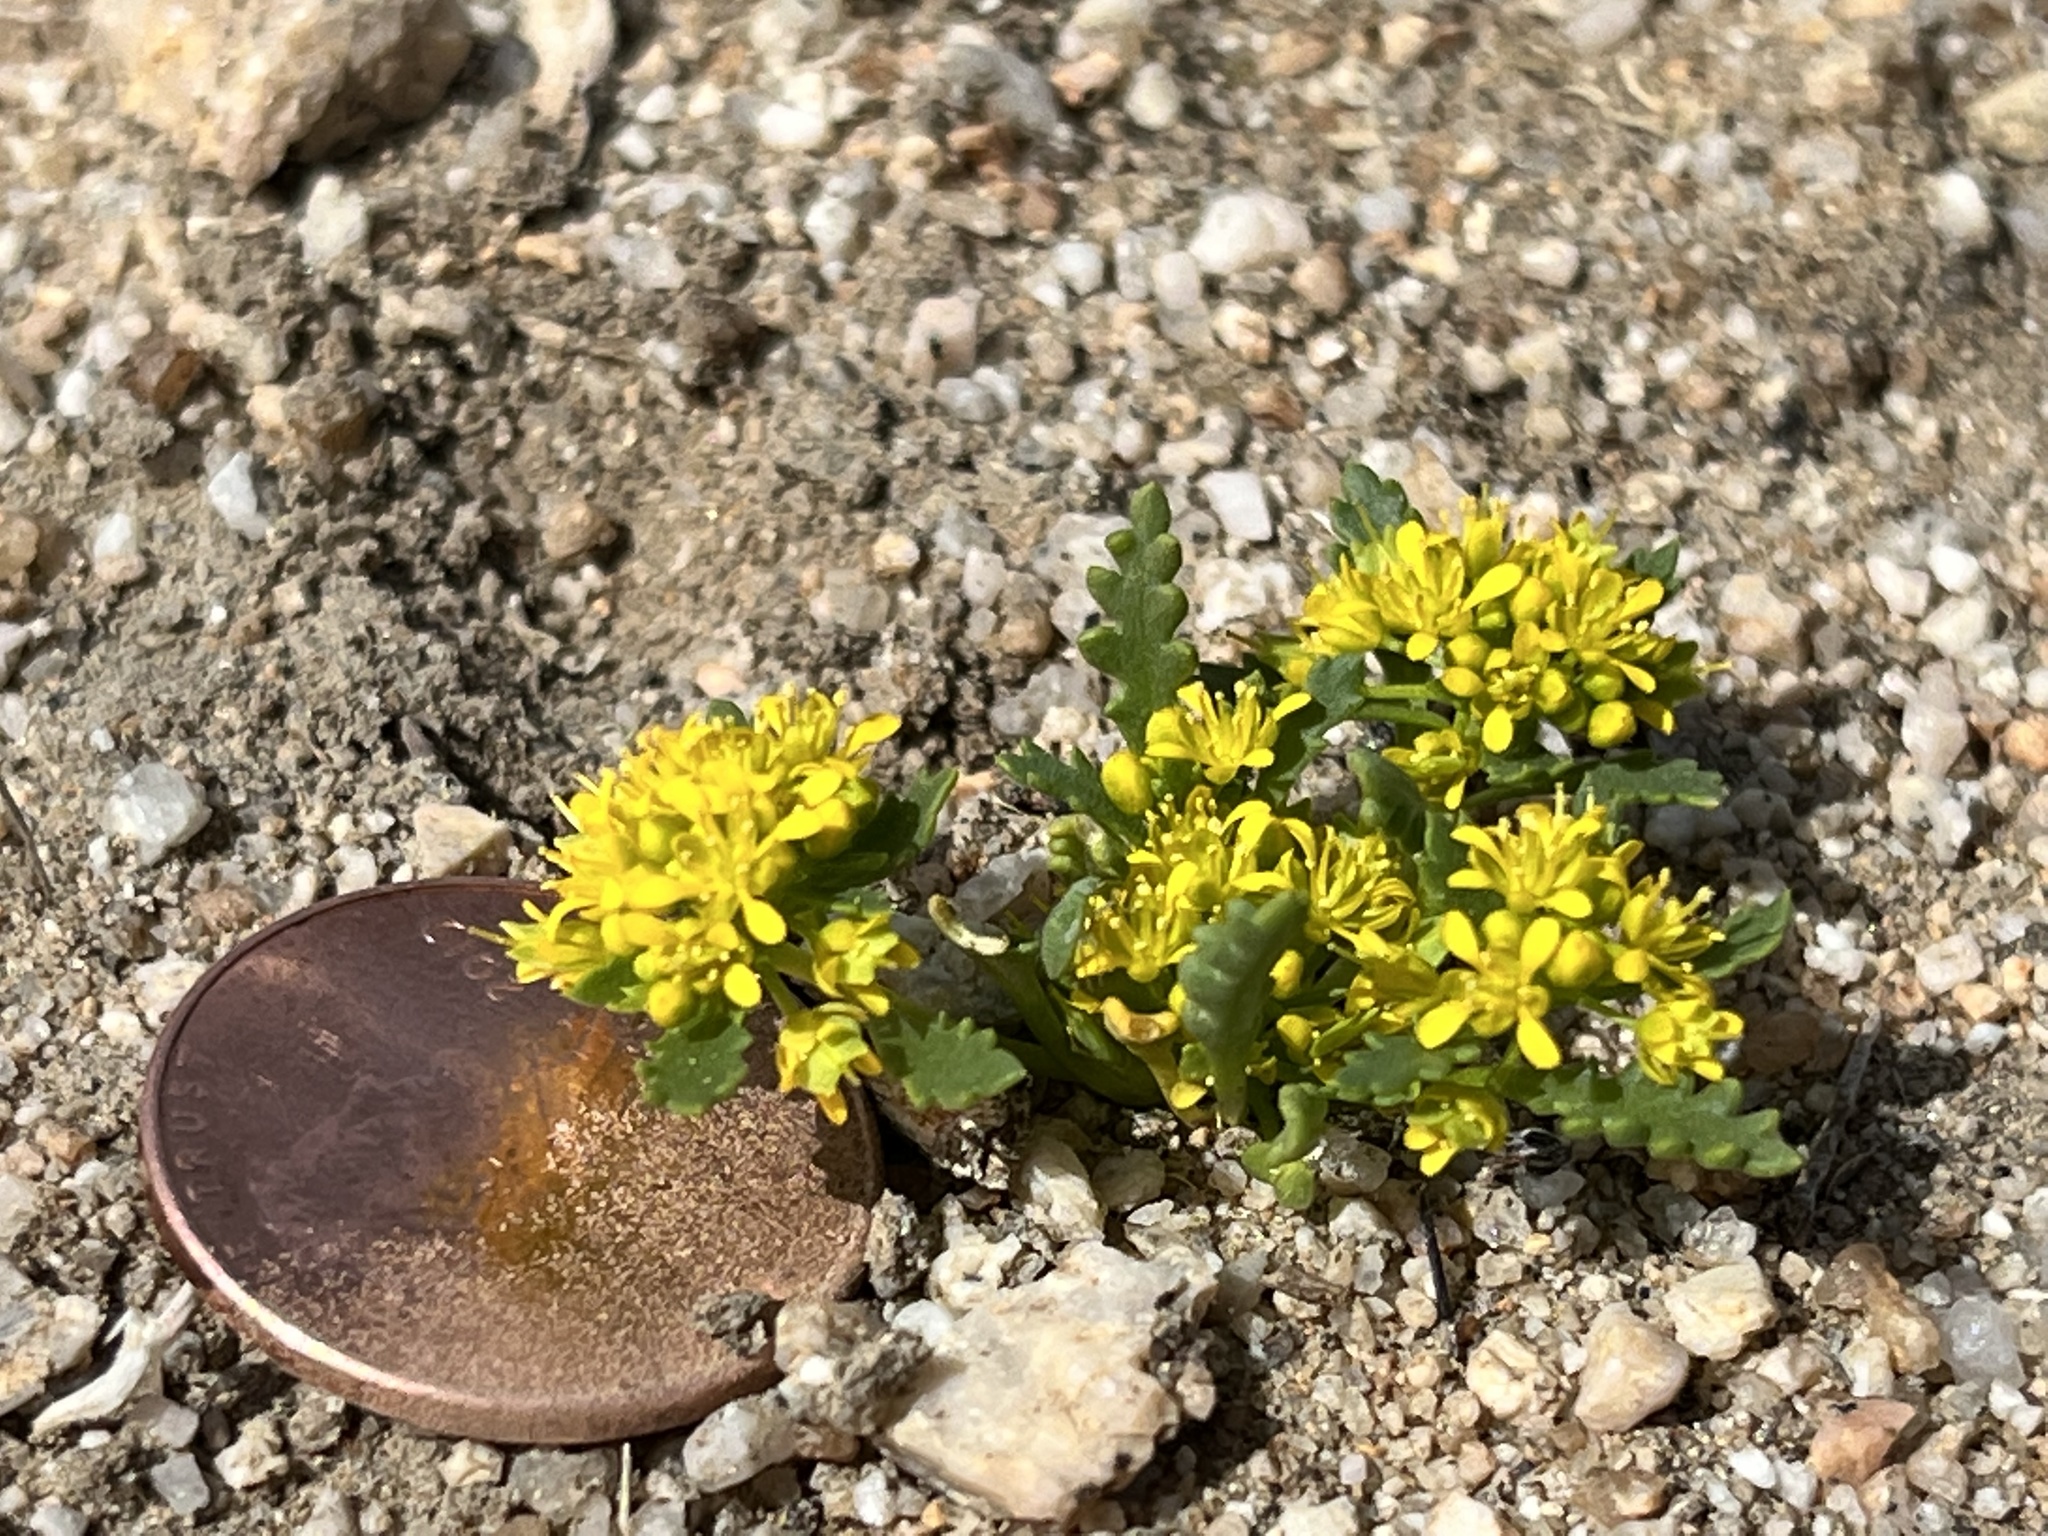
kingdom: Plantae
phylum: Tracheophyta
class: Magnoliopsida
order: Brassicales
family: Brassicaceae
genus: Lepidium
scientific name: Lepidium flavum
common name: Yellow pepperwort
